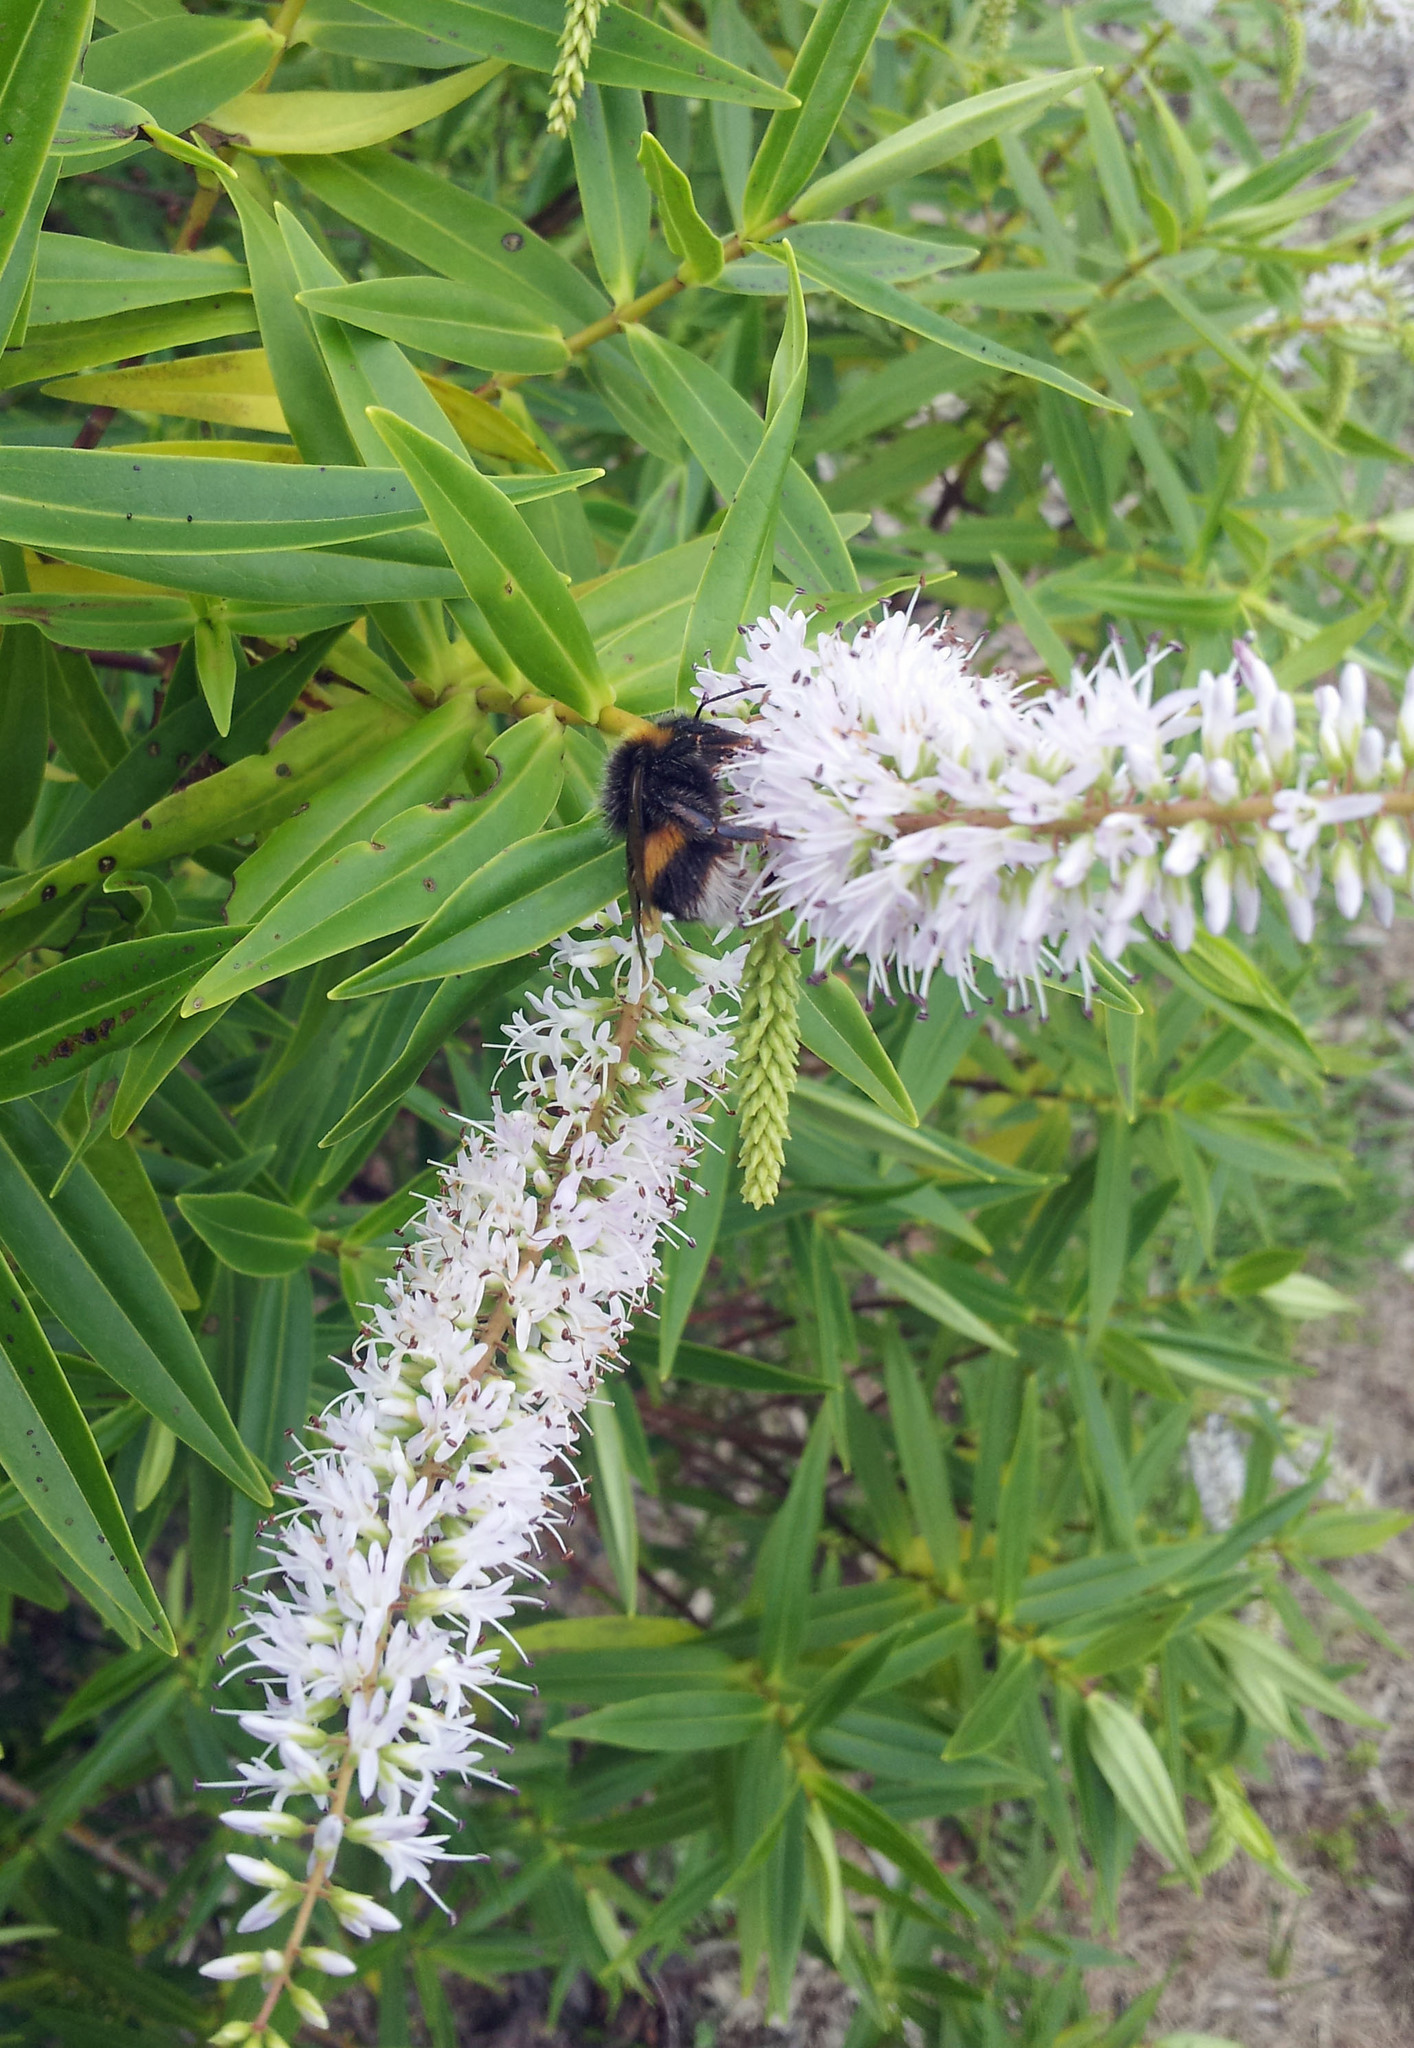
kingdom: Animalia
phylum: Arthropoda
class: Insecta
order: Hymenoptera
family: Apidae
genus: Bombus
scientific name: Bombus terrestris
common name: Buff-tailed bumblebee
